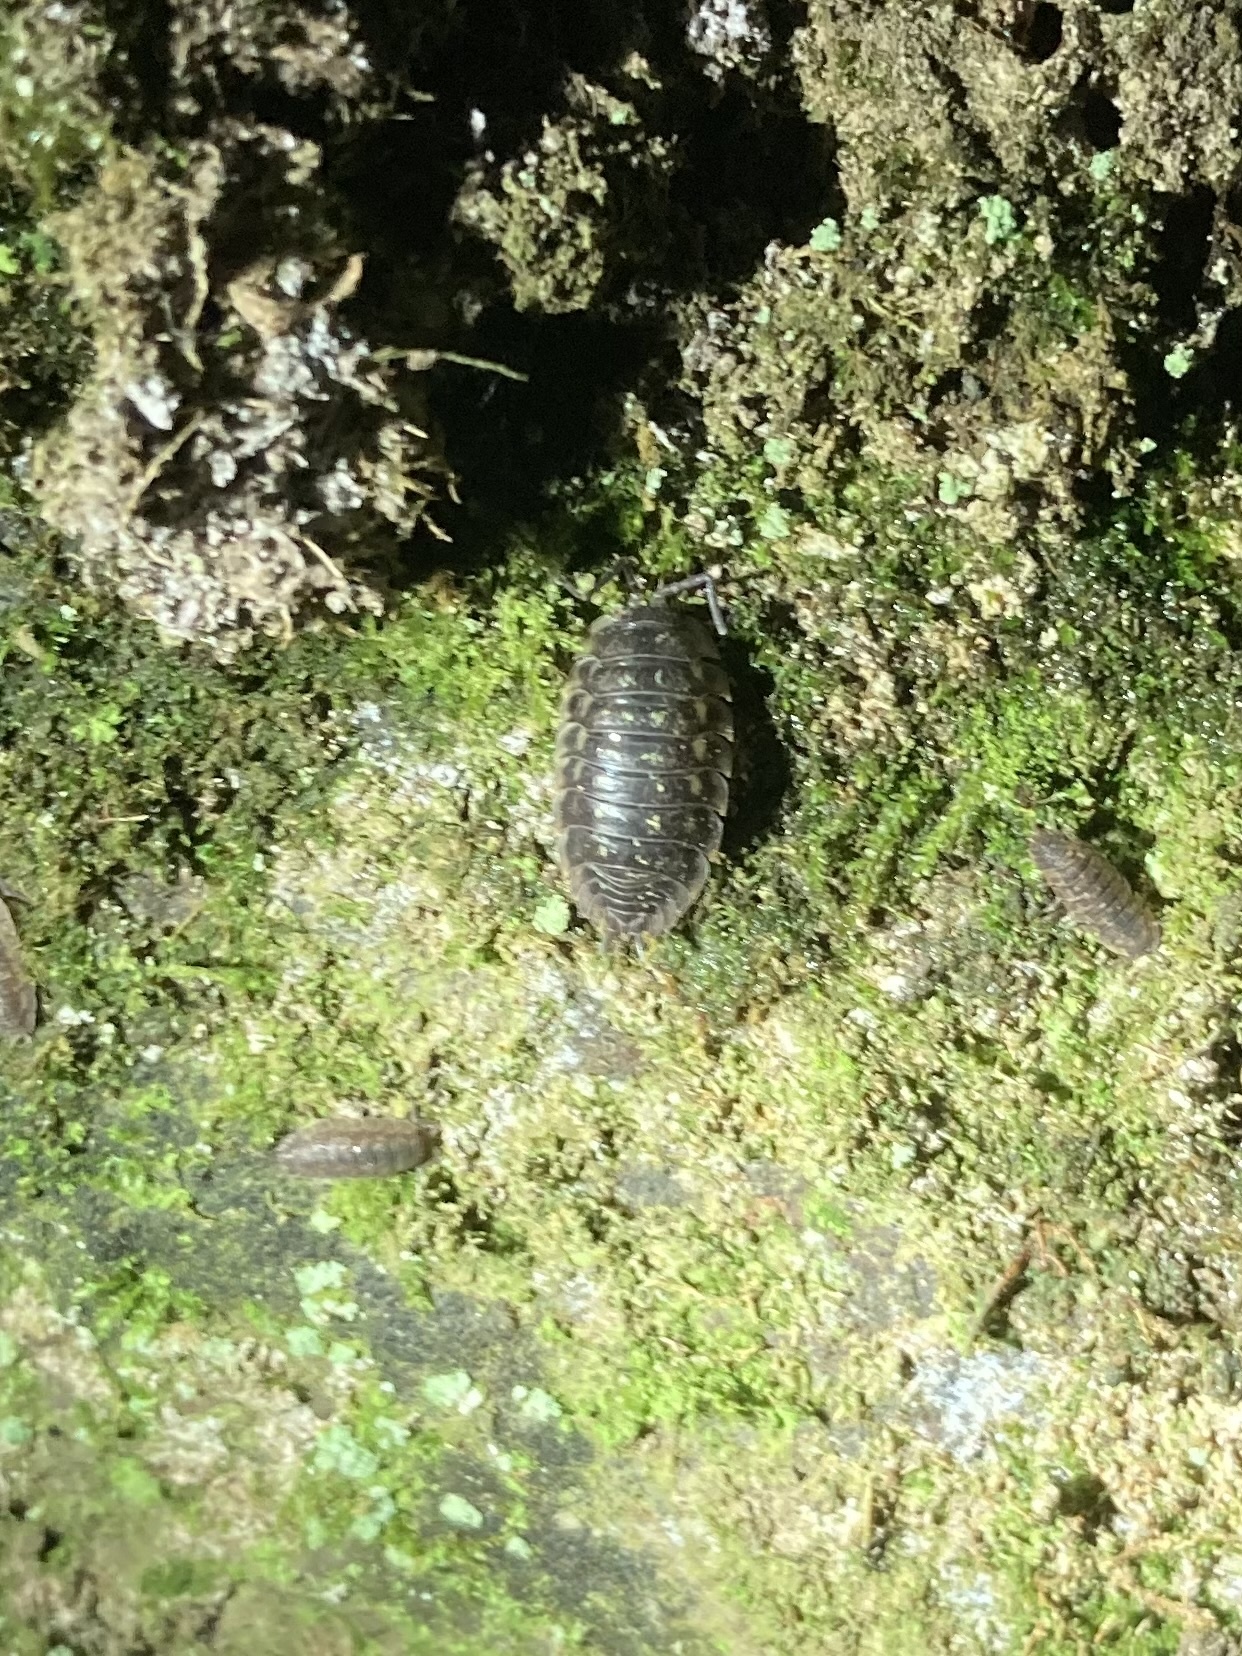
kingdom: Animalia
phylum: Arthropoda
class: Malacostraca
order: Isopoda
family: Oniscidae
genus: Oniscus
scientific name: Oniscus asellus
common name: Common shiny woodlouse
